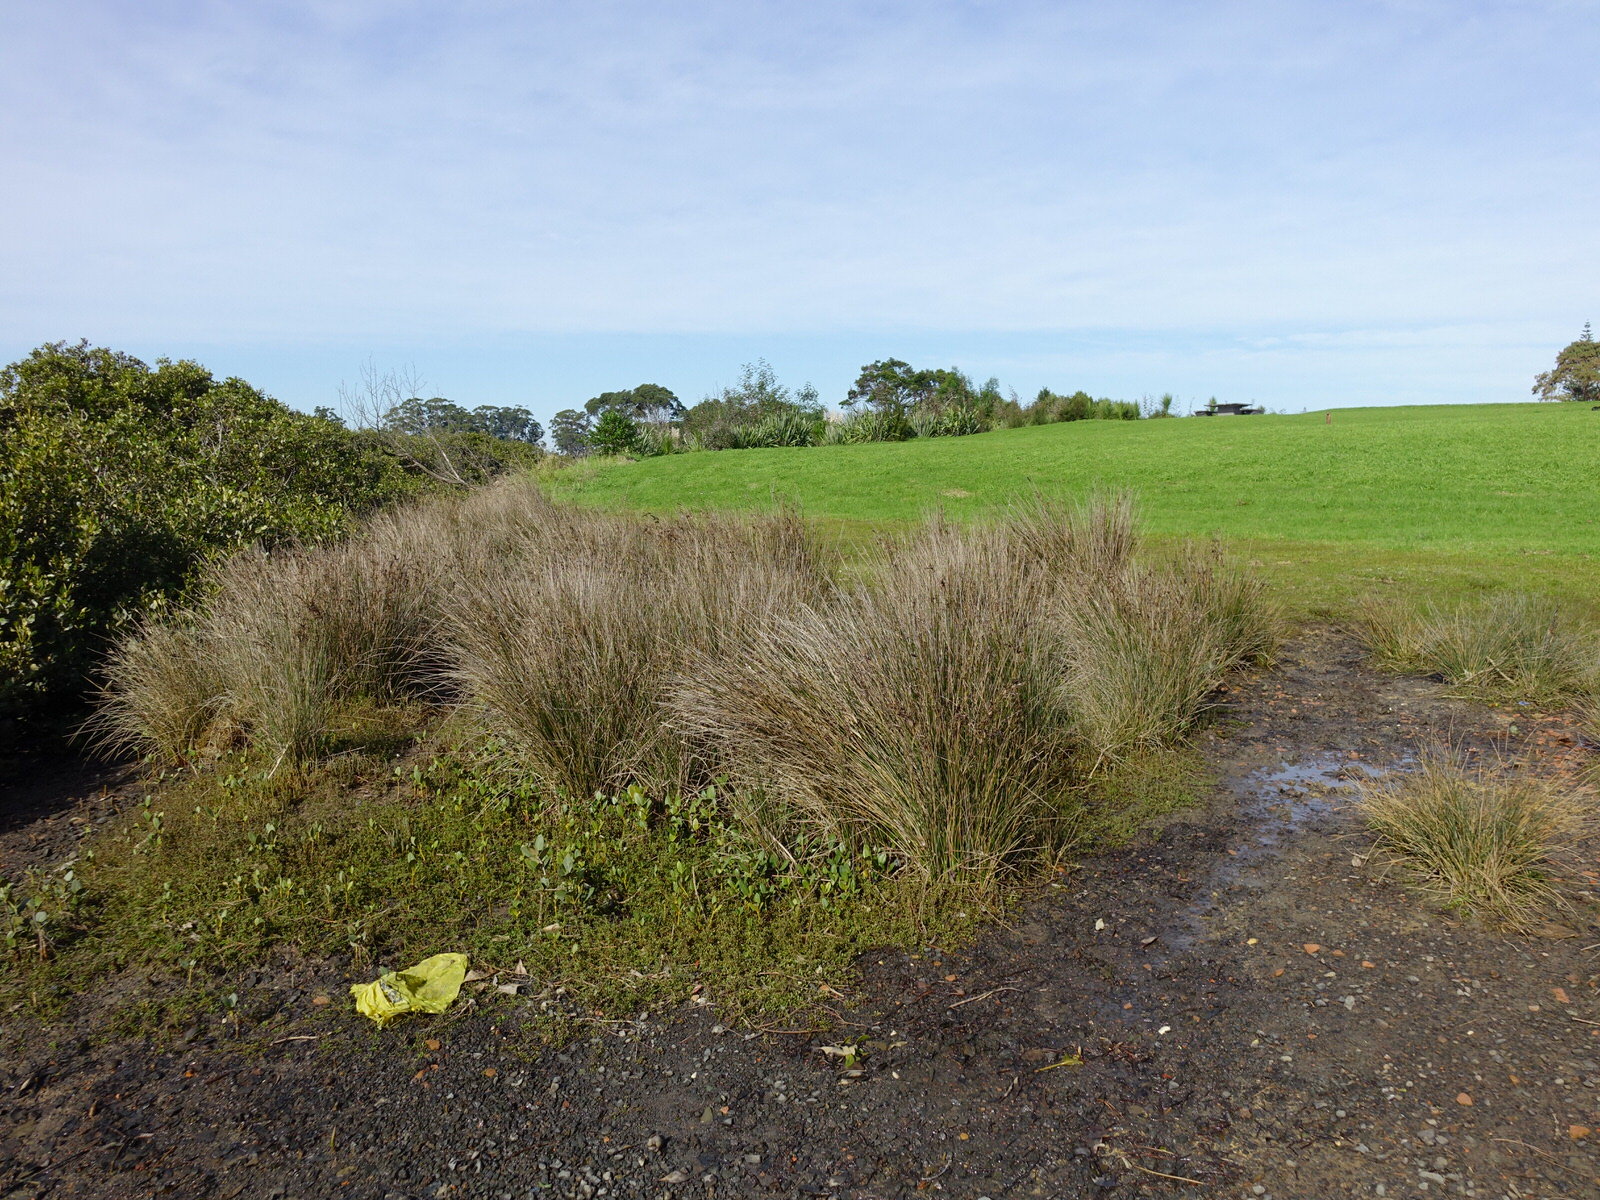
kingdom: Plantae
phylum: Tracheophyta
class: Magnoliopsida
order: Ericales
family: Primulaceae
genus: Samolus
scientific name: Samolus repens
